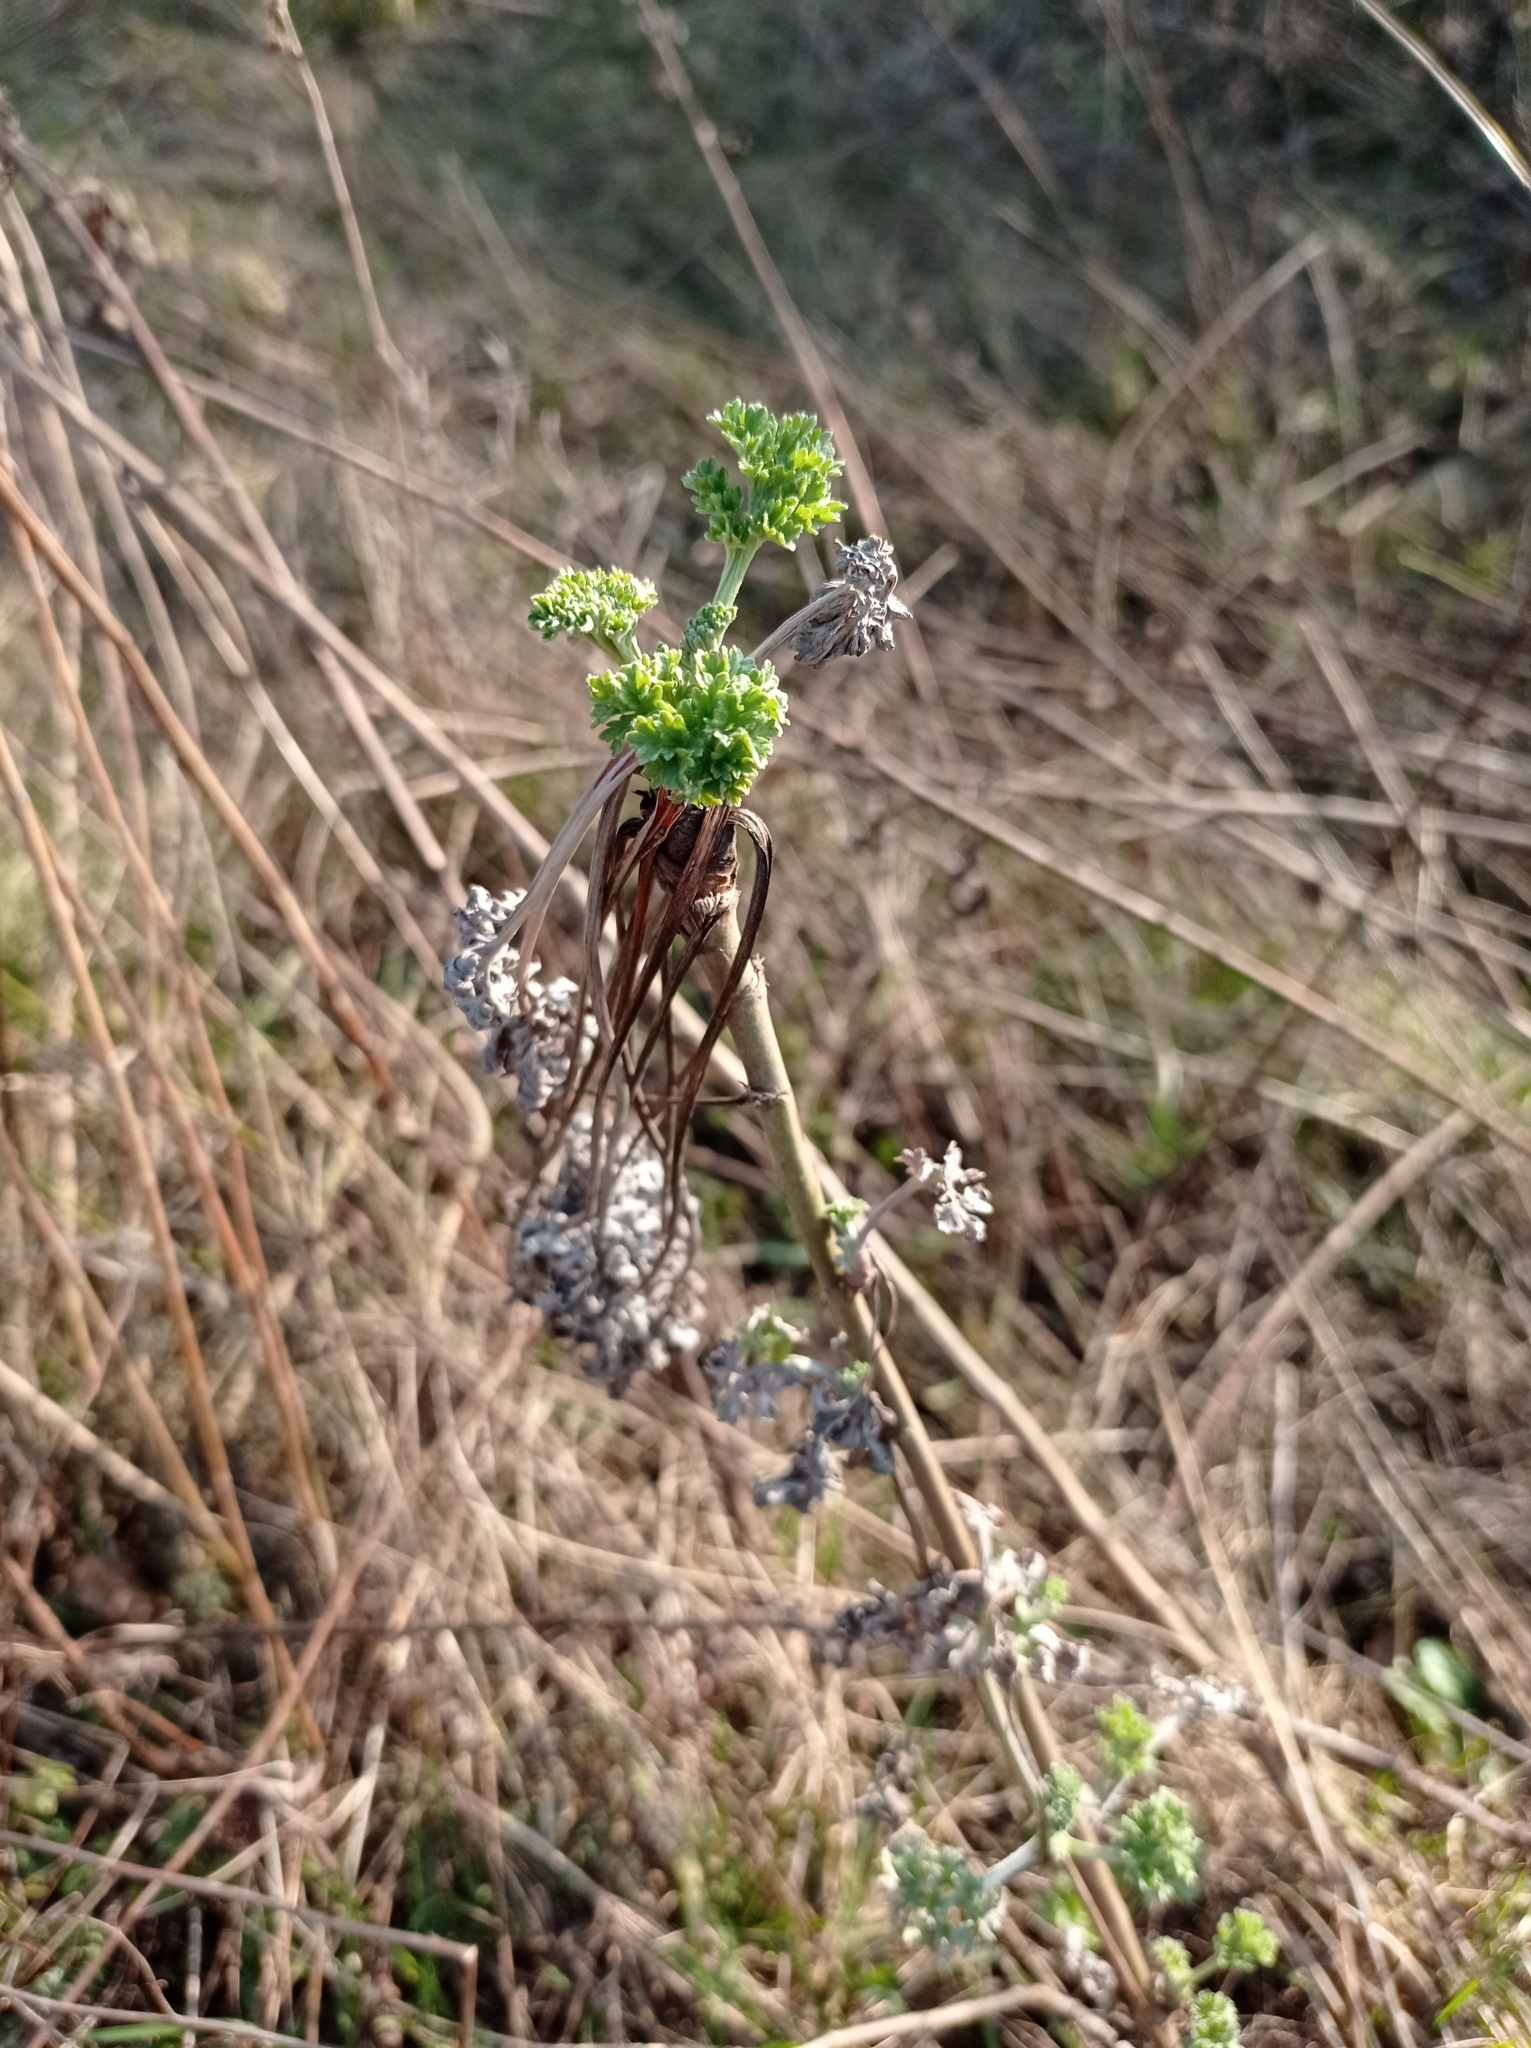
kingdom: Plantae
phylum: Tracheophyta
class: Magnoliopsida
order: Asterales
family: Asteraceae
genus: Artemisia
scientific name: Artemisia absinthium
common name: Wormwood
